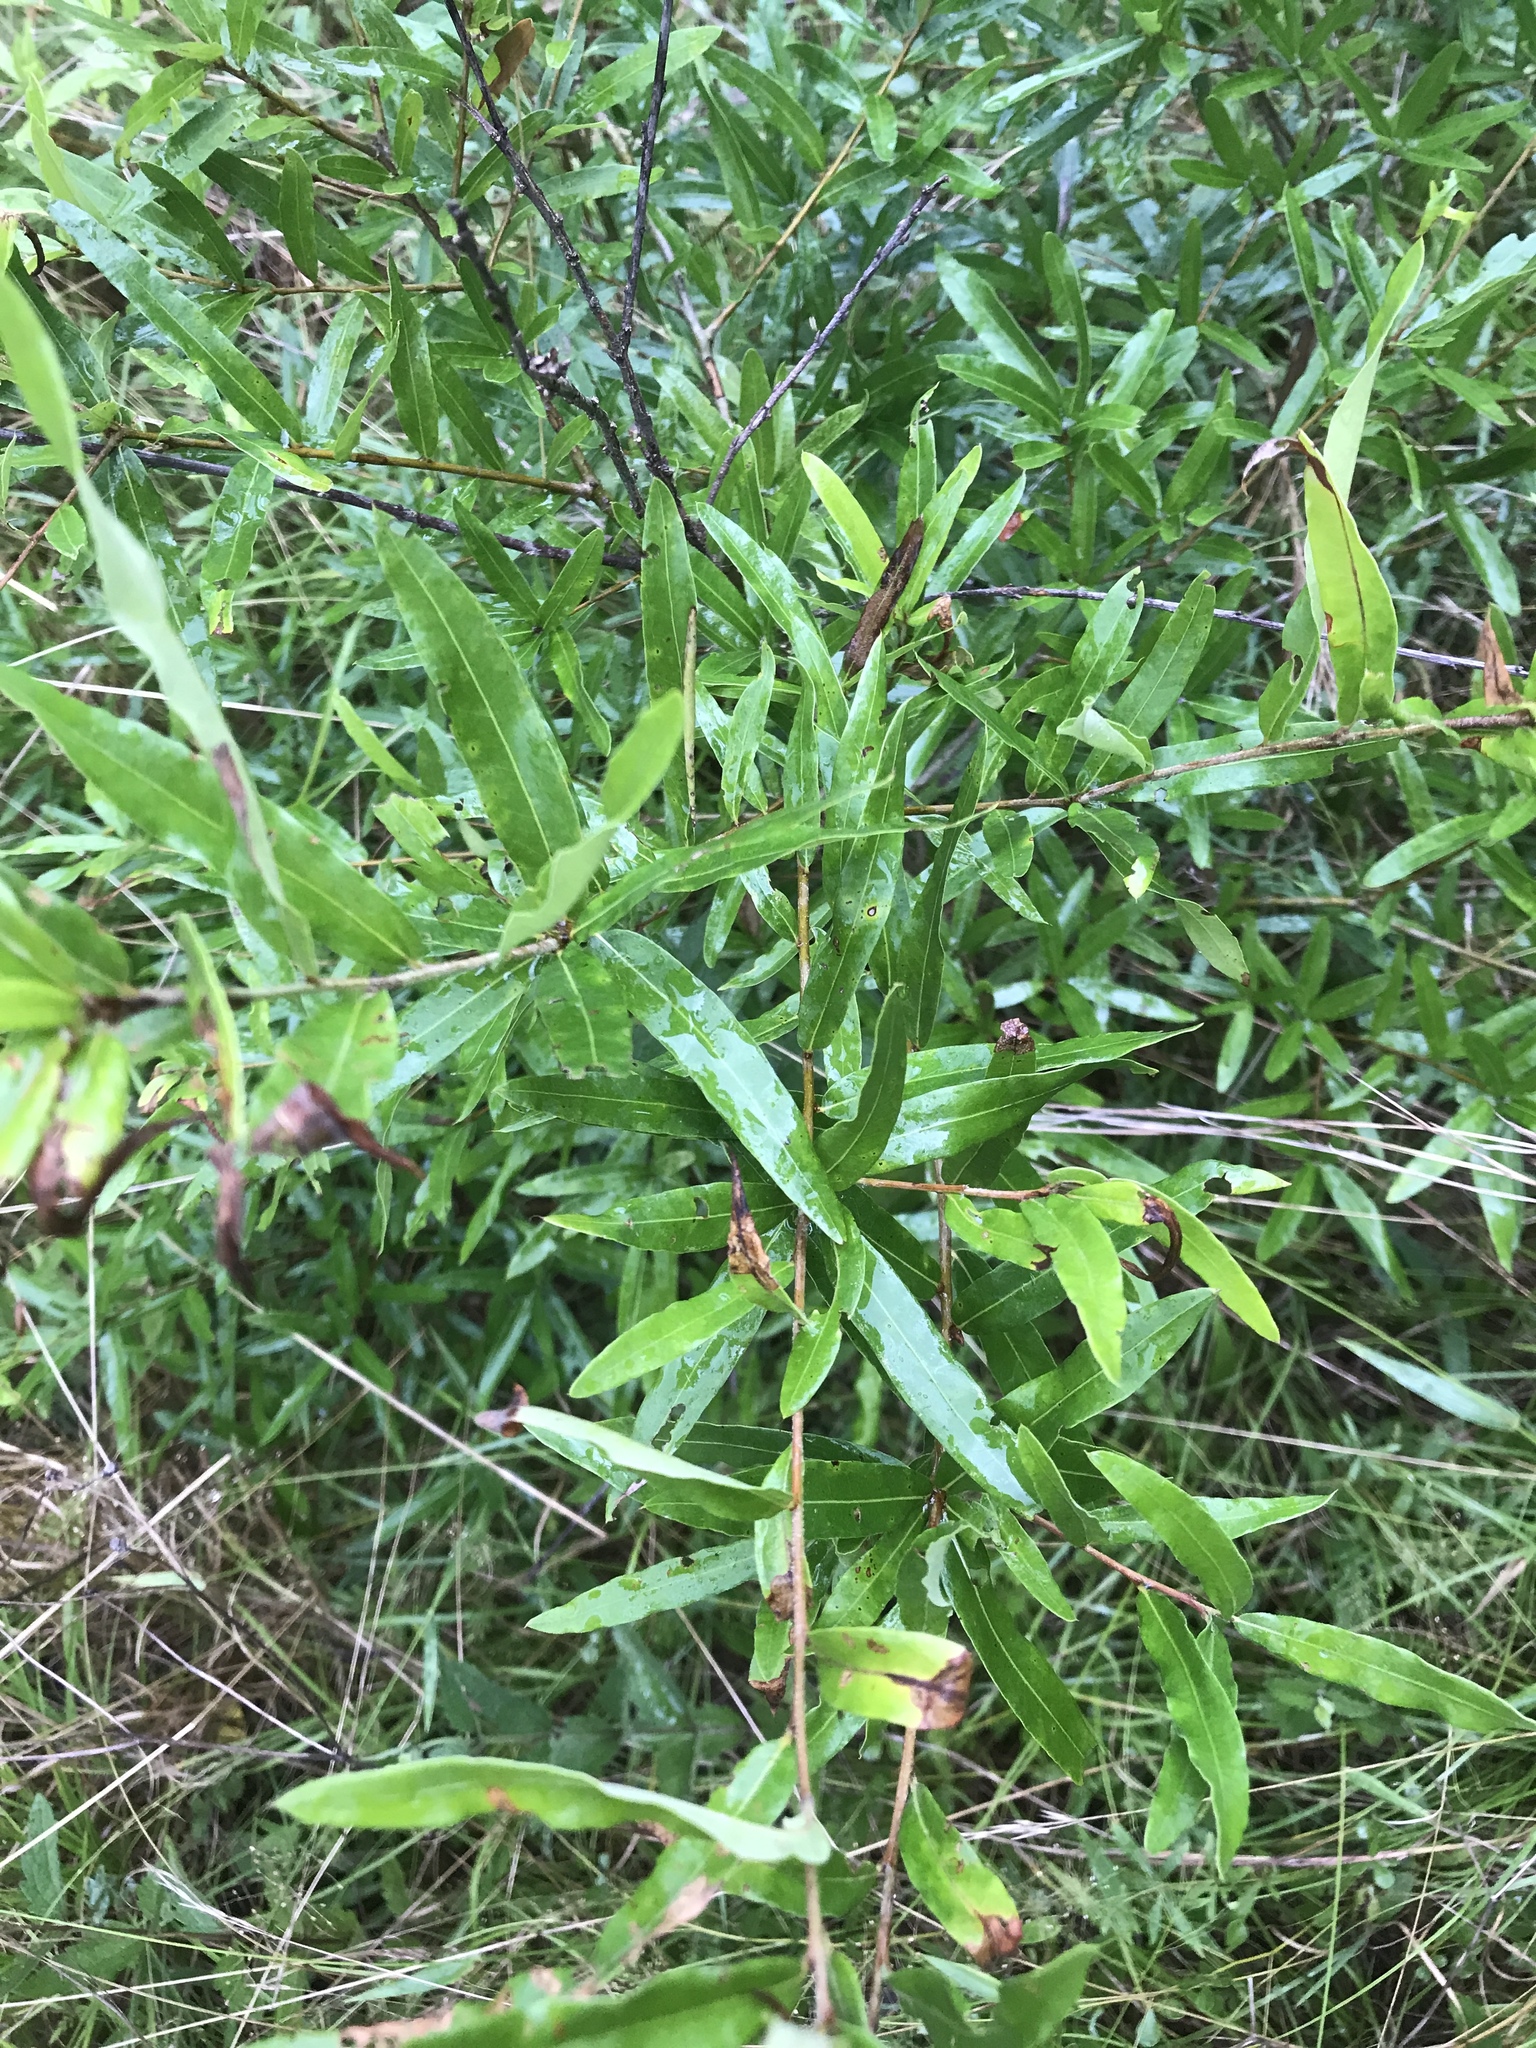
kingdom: Plantae
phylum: Tracheophyta
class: Magnoliopsida
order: Fagales
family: Fagaceae
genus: Quercus
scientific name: Quercus phellos
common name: Willow oak
